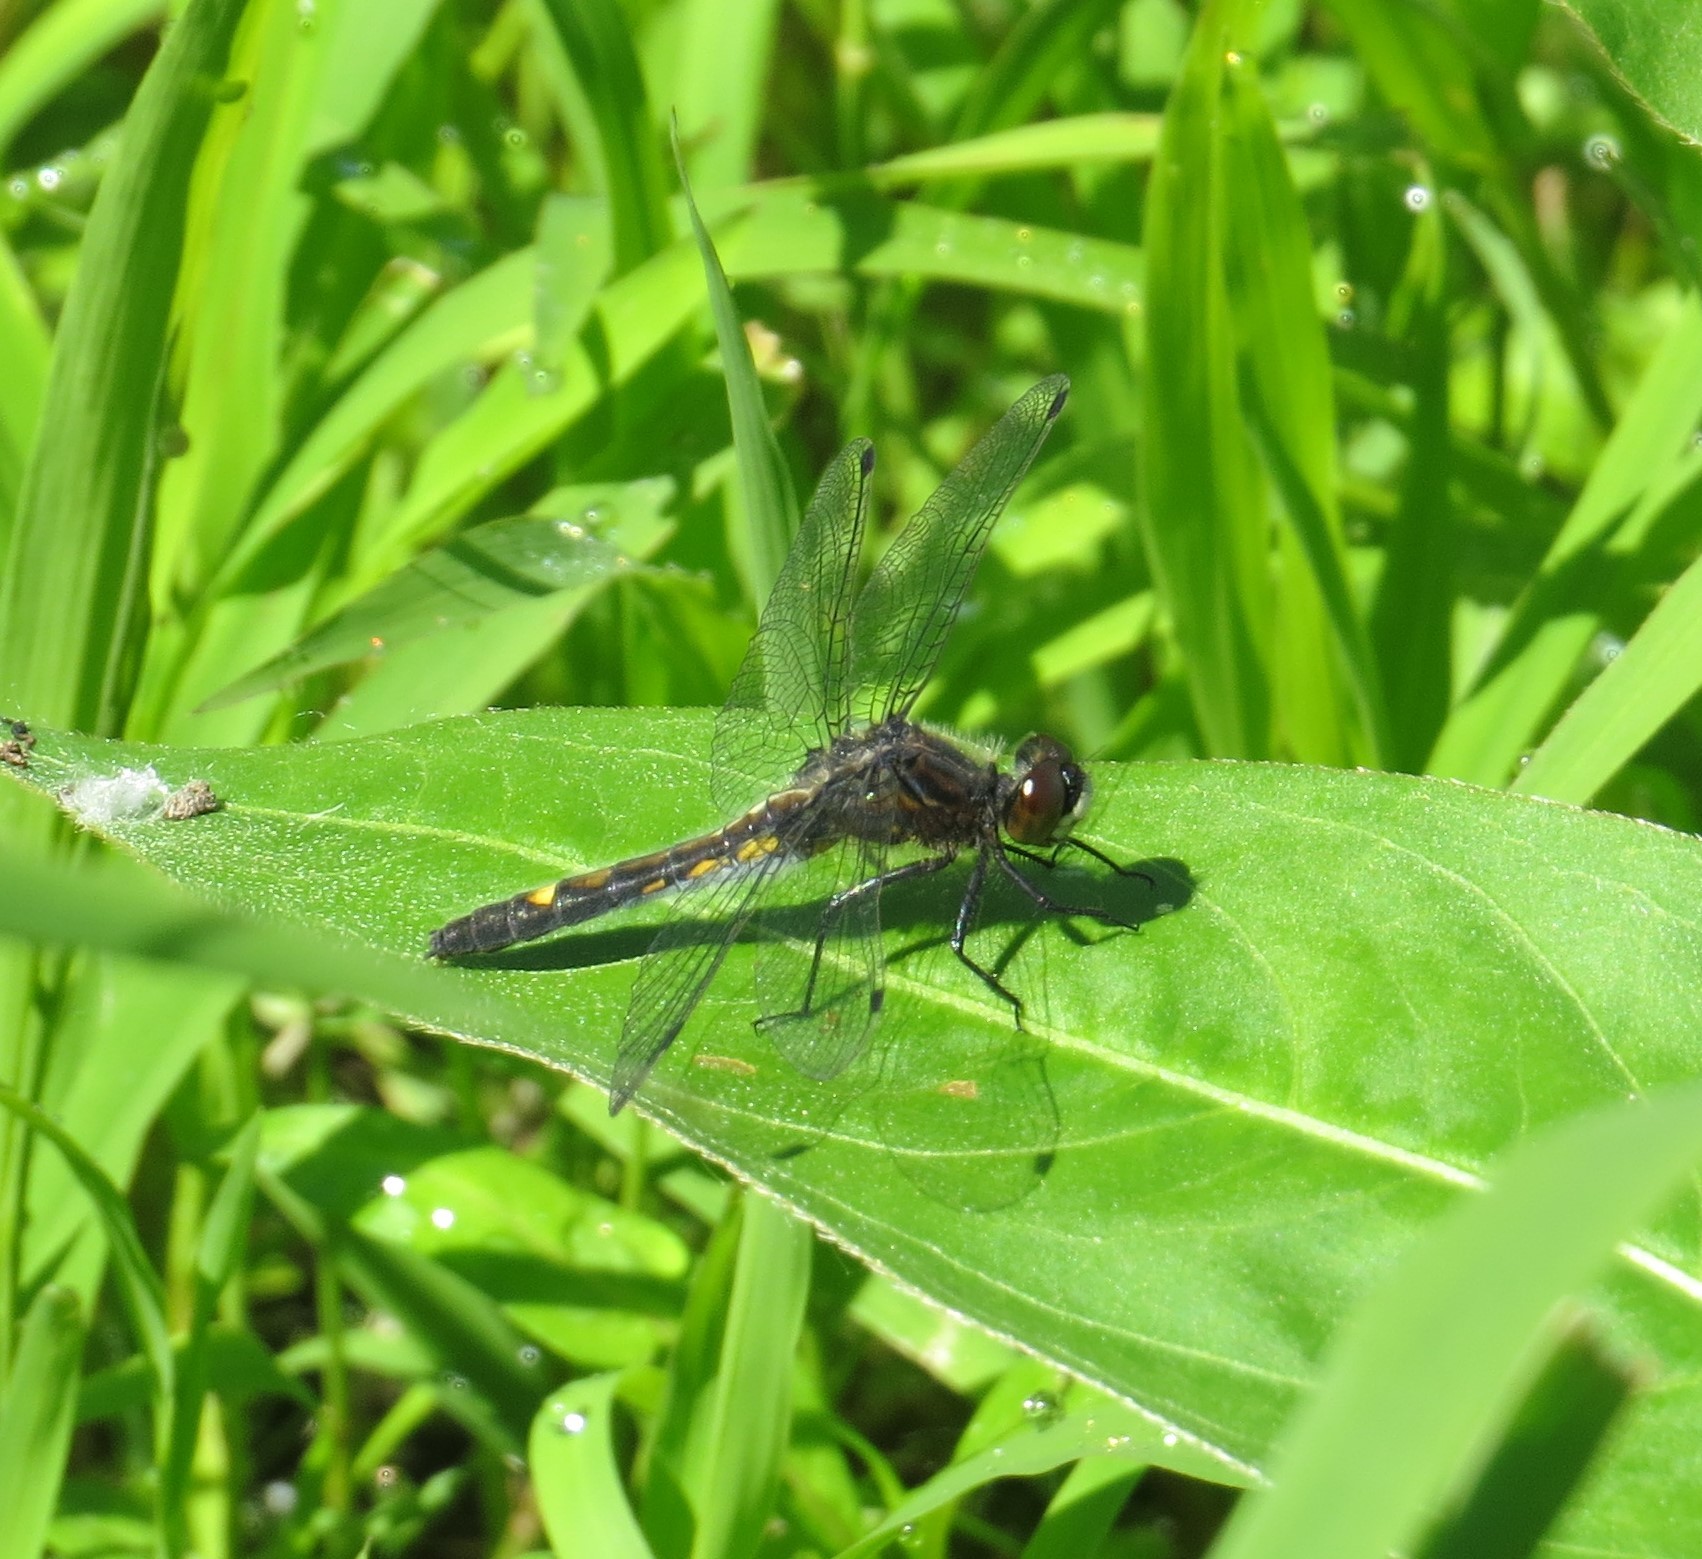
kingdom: Animalia
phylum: Arthropoda
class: Insecta
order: Odonata
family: Libellulidae
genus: Leucorrhinia
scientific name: Leucorrhinia intacta
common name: Dot-tailed whiteface
